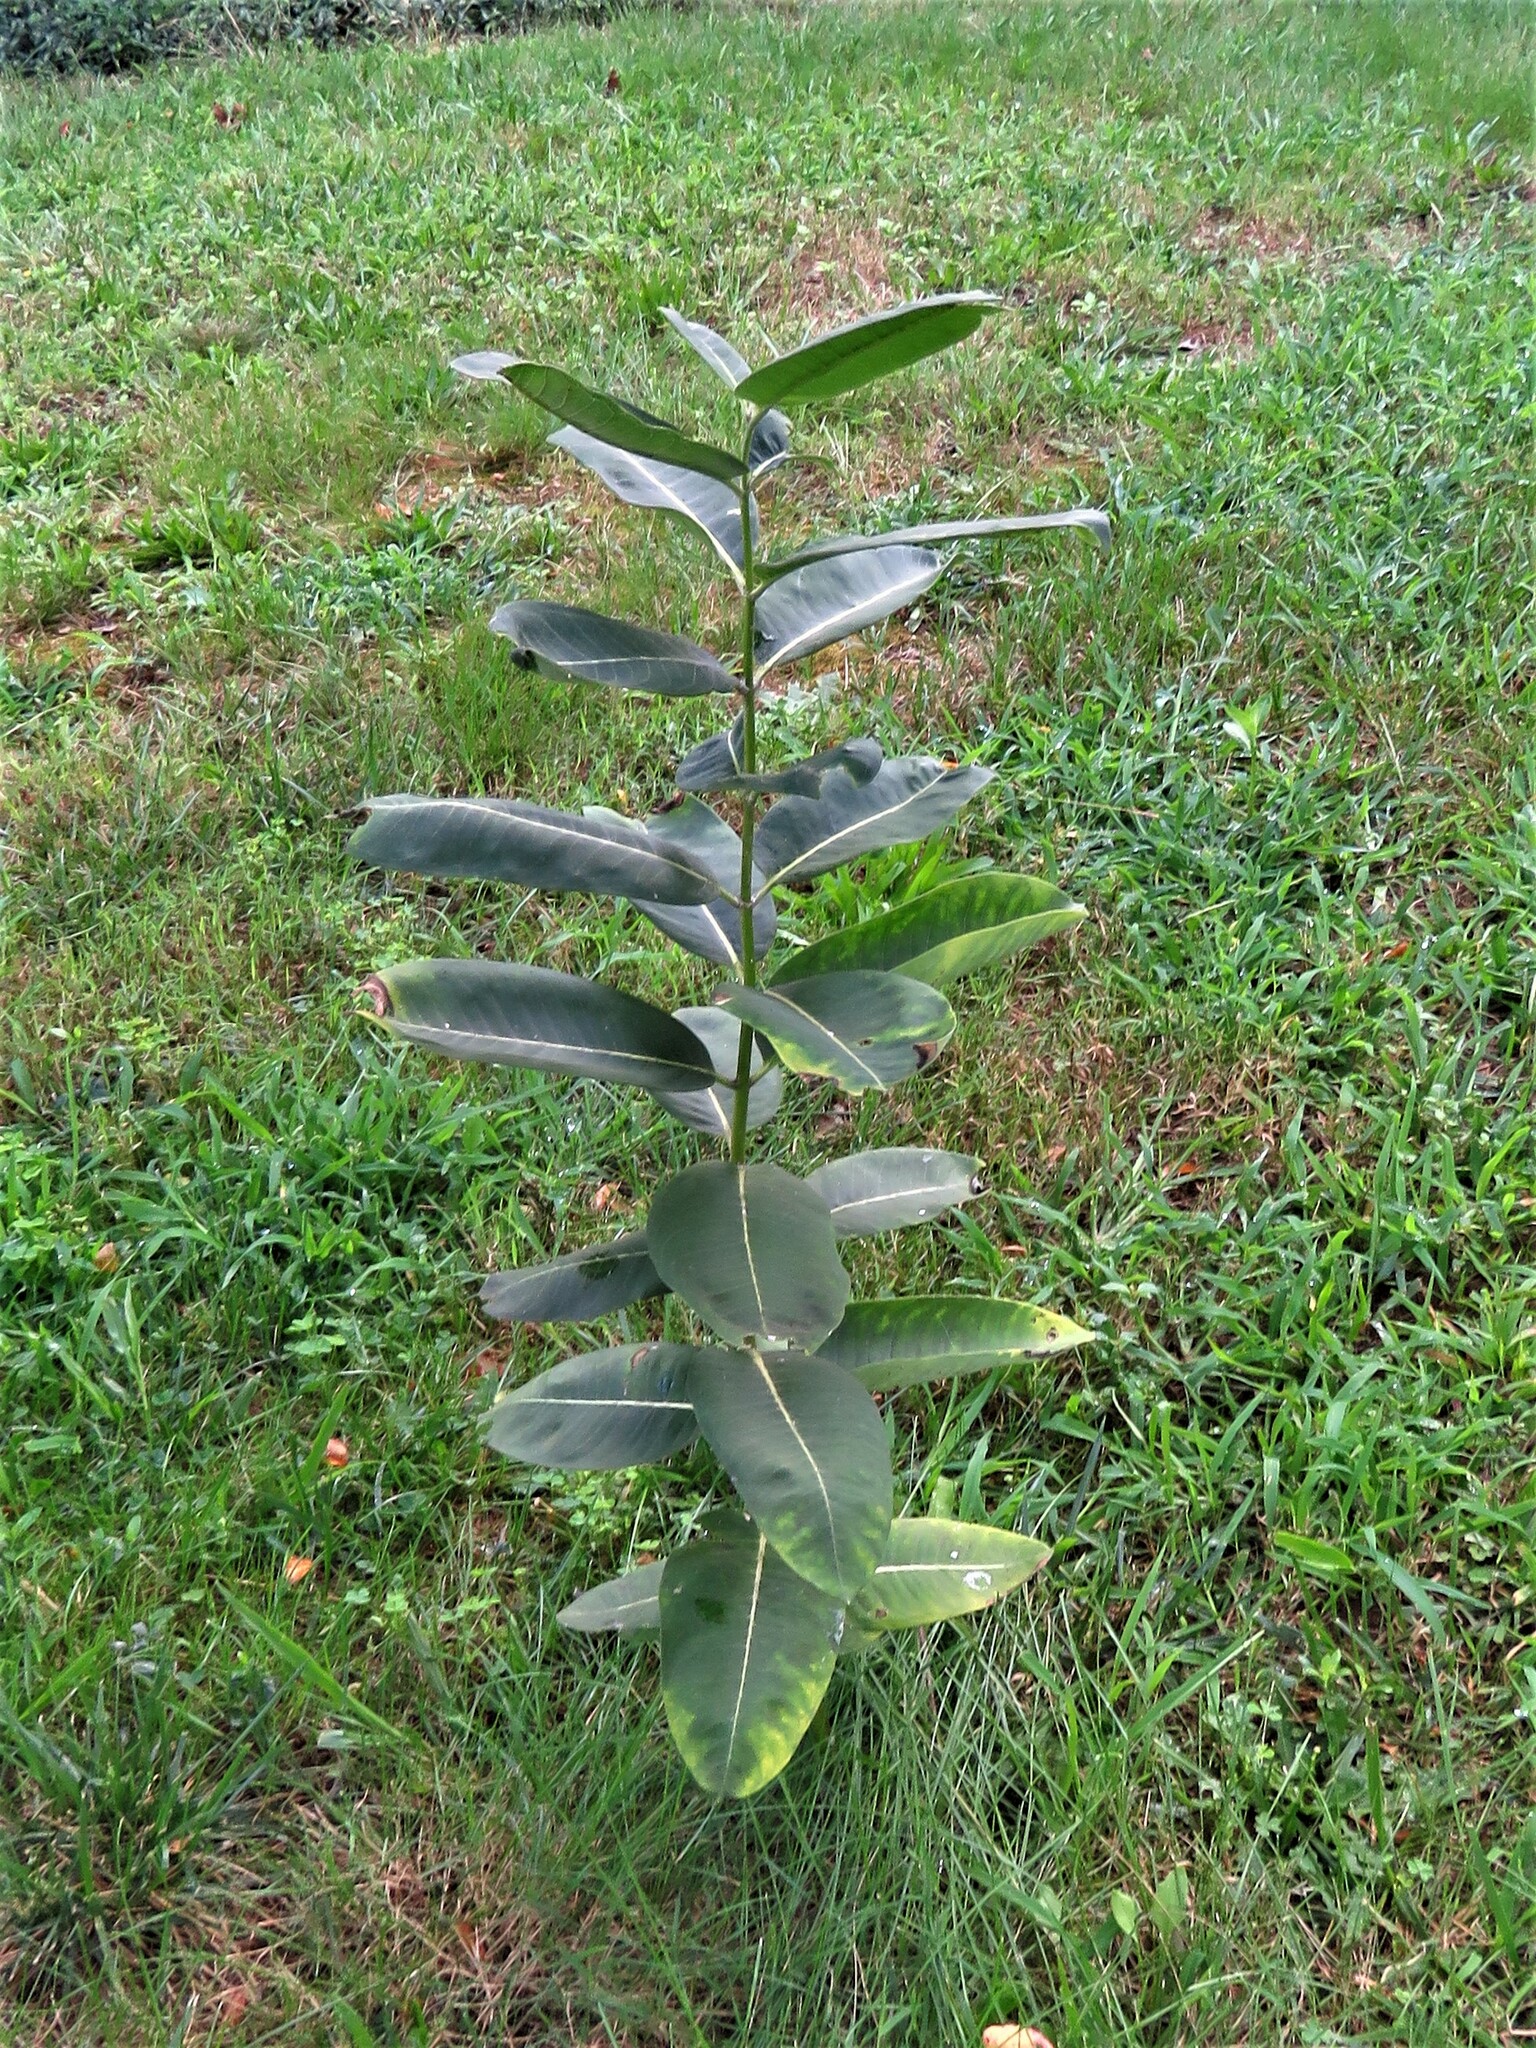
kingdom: Plantae
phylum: Tracheophyta
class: Magnoliopsida
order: Gentianales
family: Apocynaceae
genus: Asclepias
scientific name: Asclepias syriaca
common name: Common milkweed
